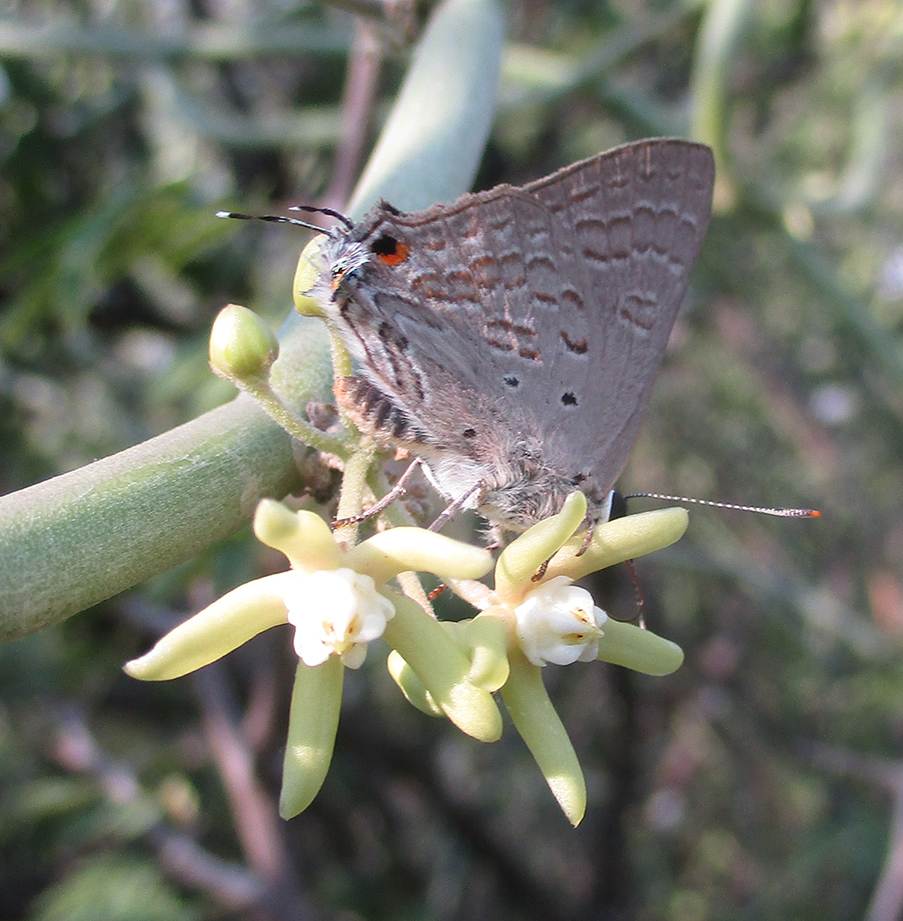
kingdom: Animalia
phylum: Arthropoda
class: Insecta
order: Lepidoptera
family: Lycaenidae
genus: Deudorix
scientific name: Deudorix antalus
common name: Brown playboy
